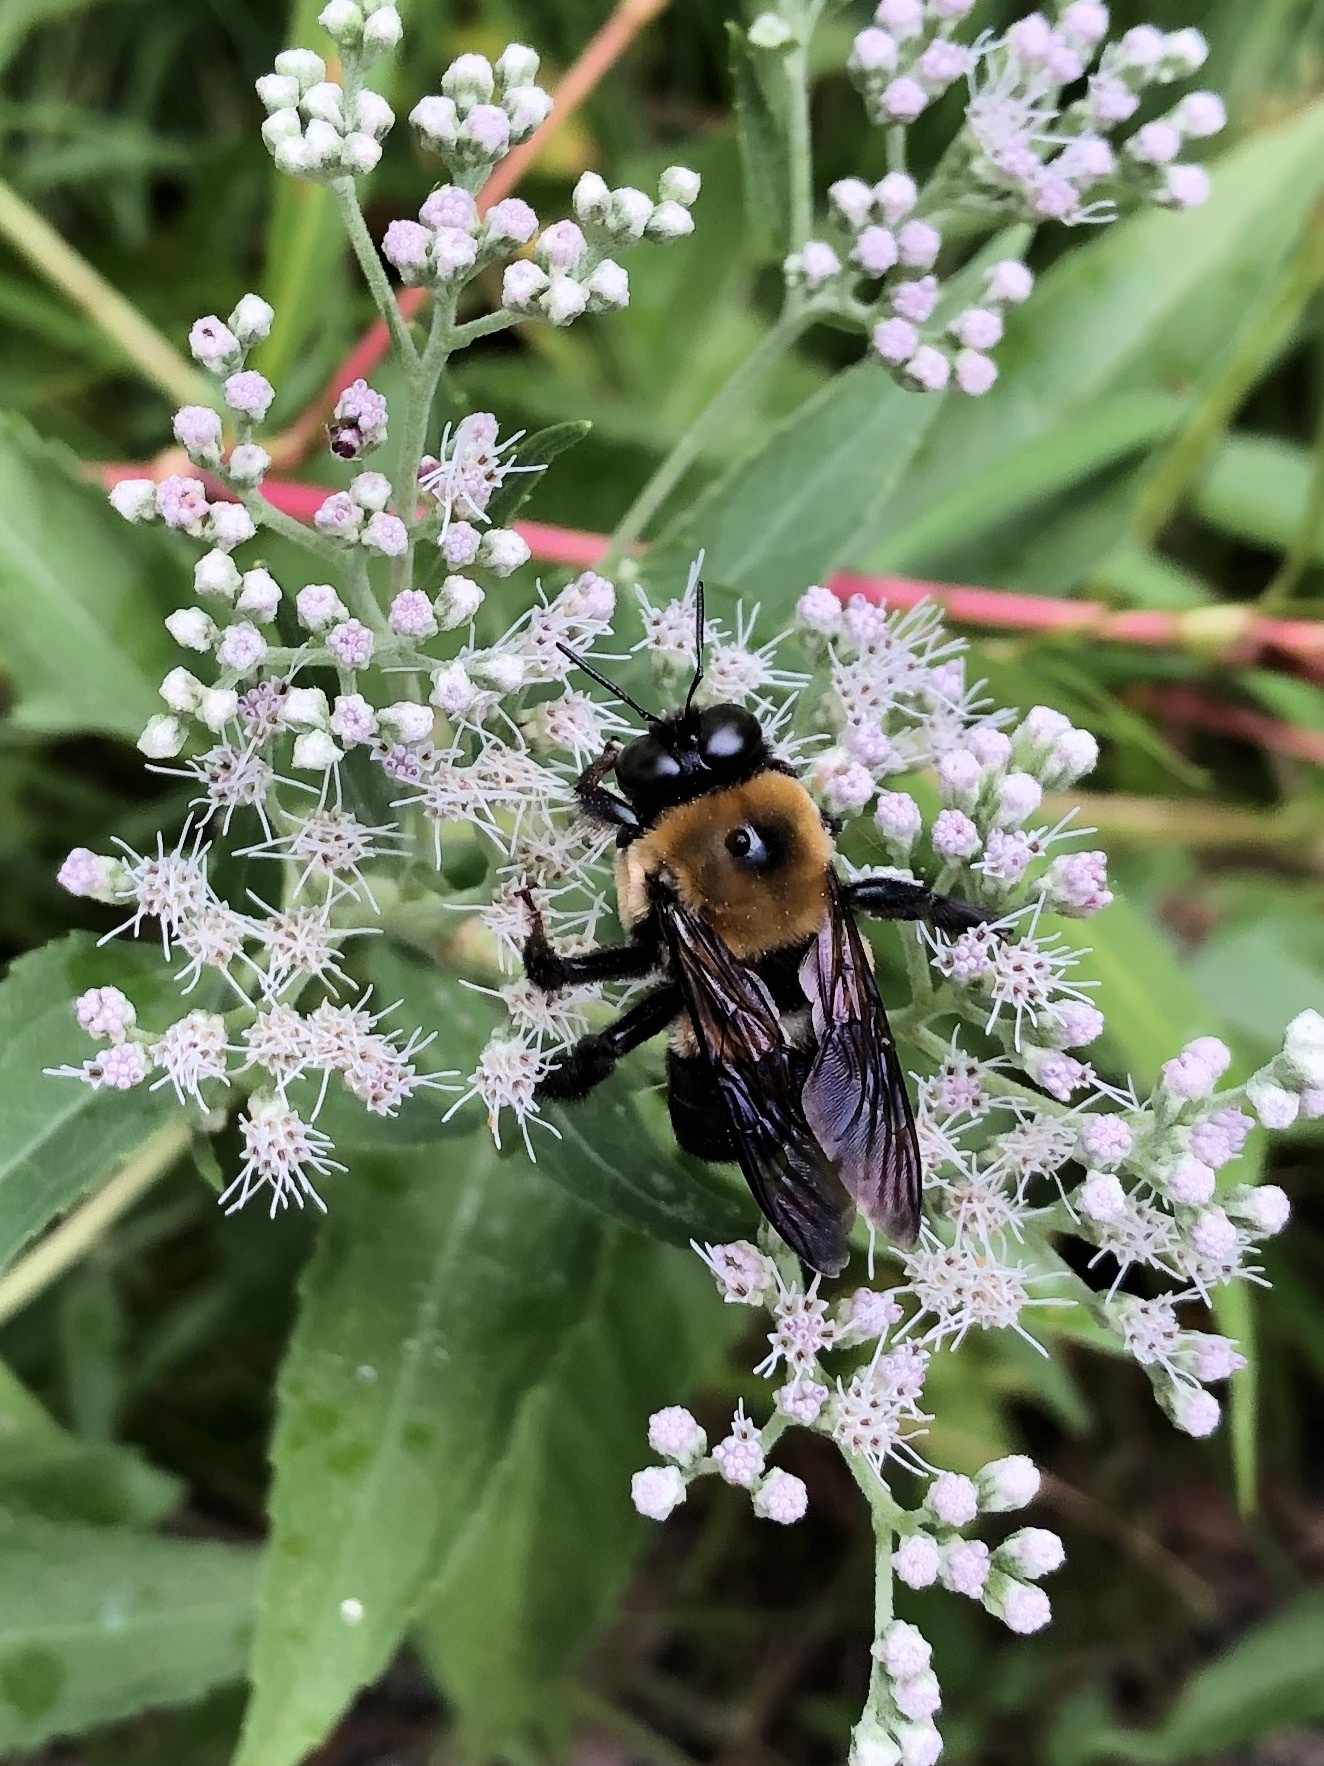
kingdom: Animalia
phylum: Arthropoda
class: Insecta
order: Hymenoptera
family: Apidae
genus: Xylocopa
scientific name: Xylocopa virginica
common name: Carpenter bee
